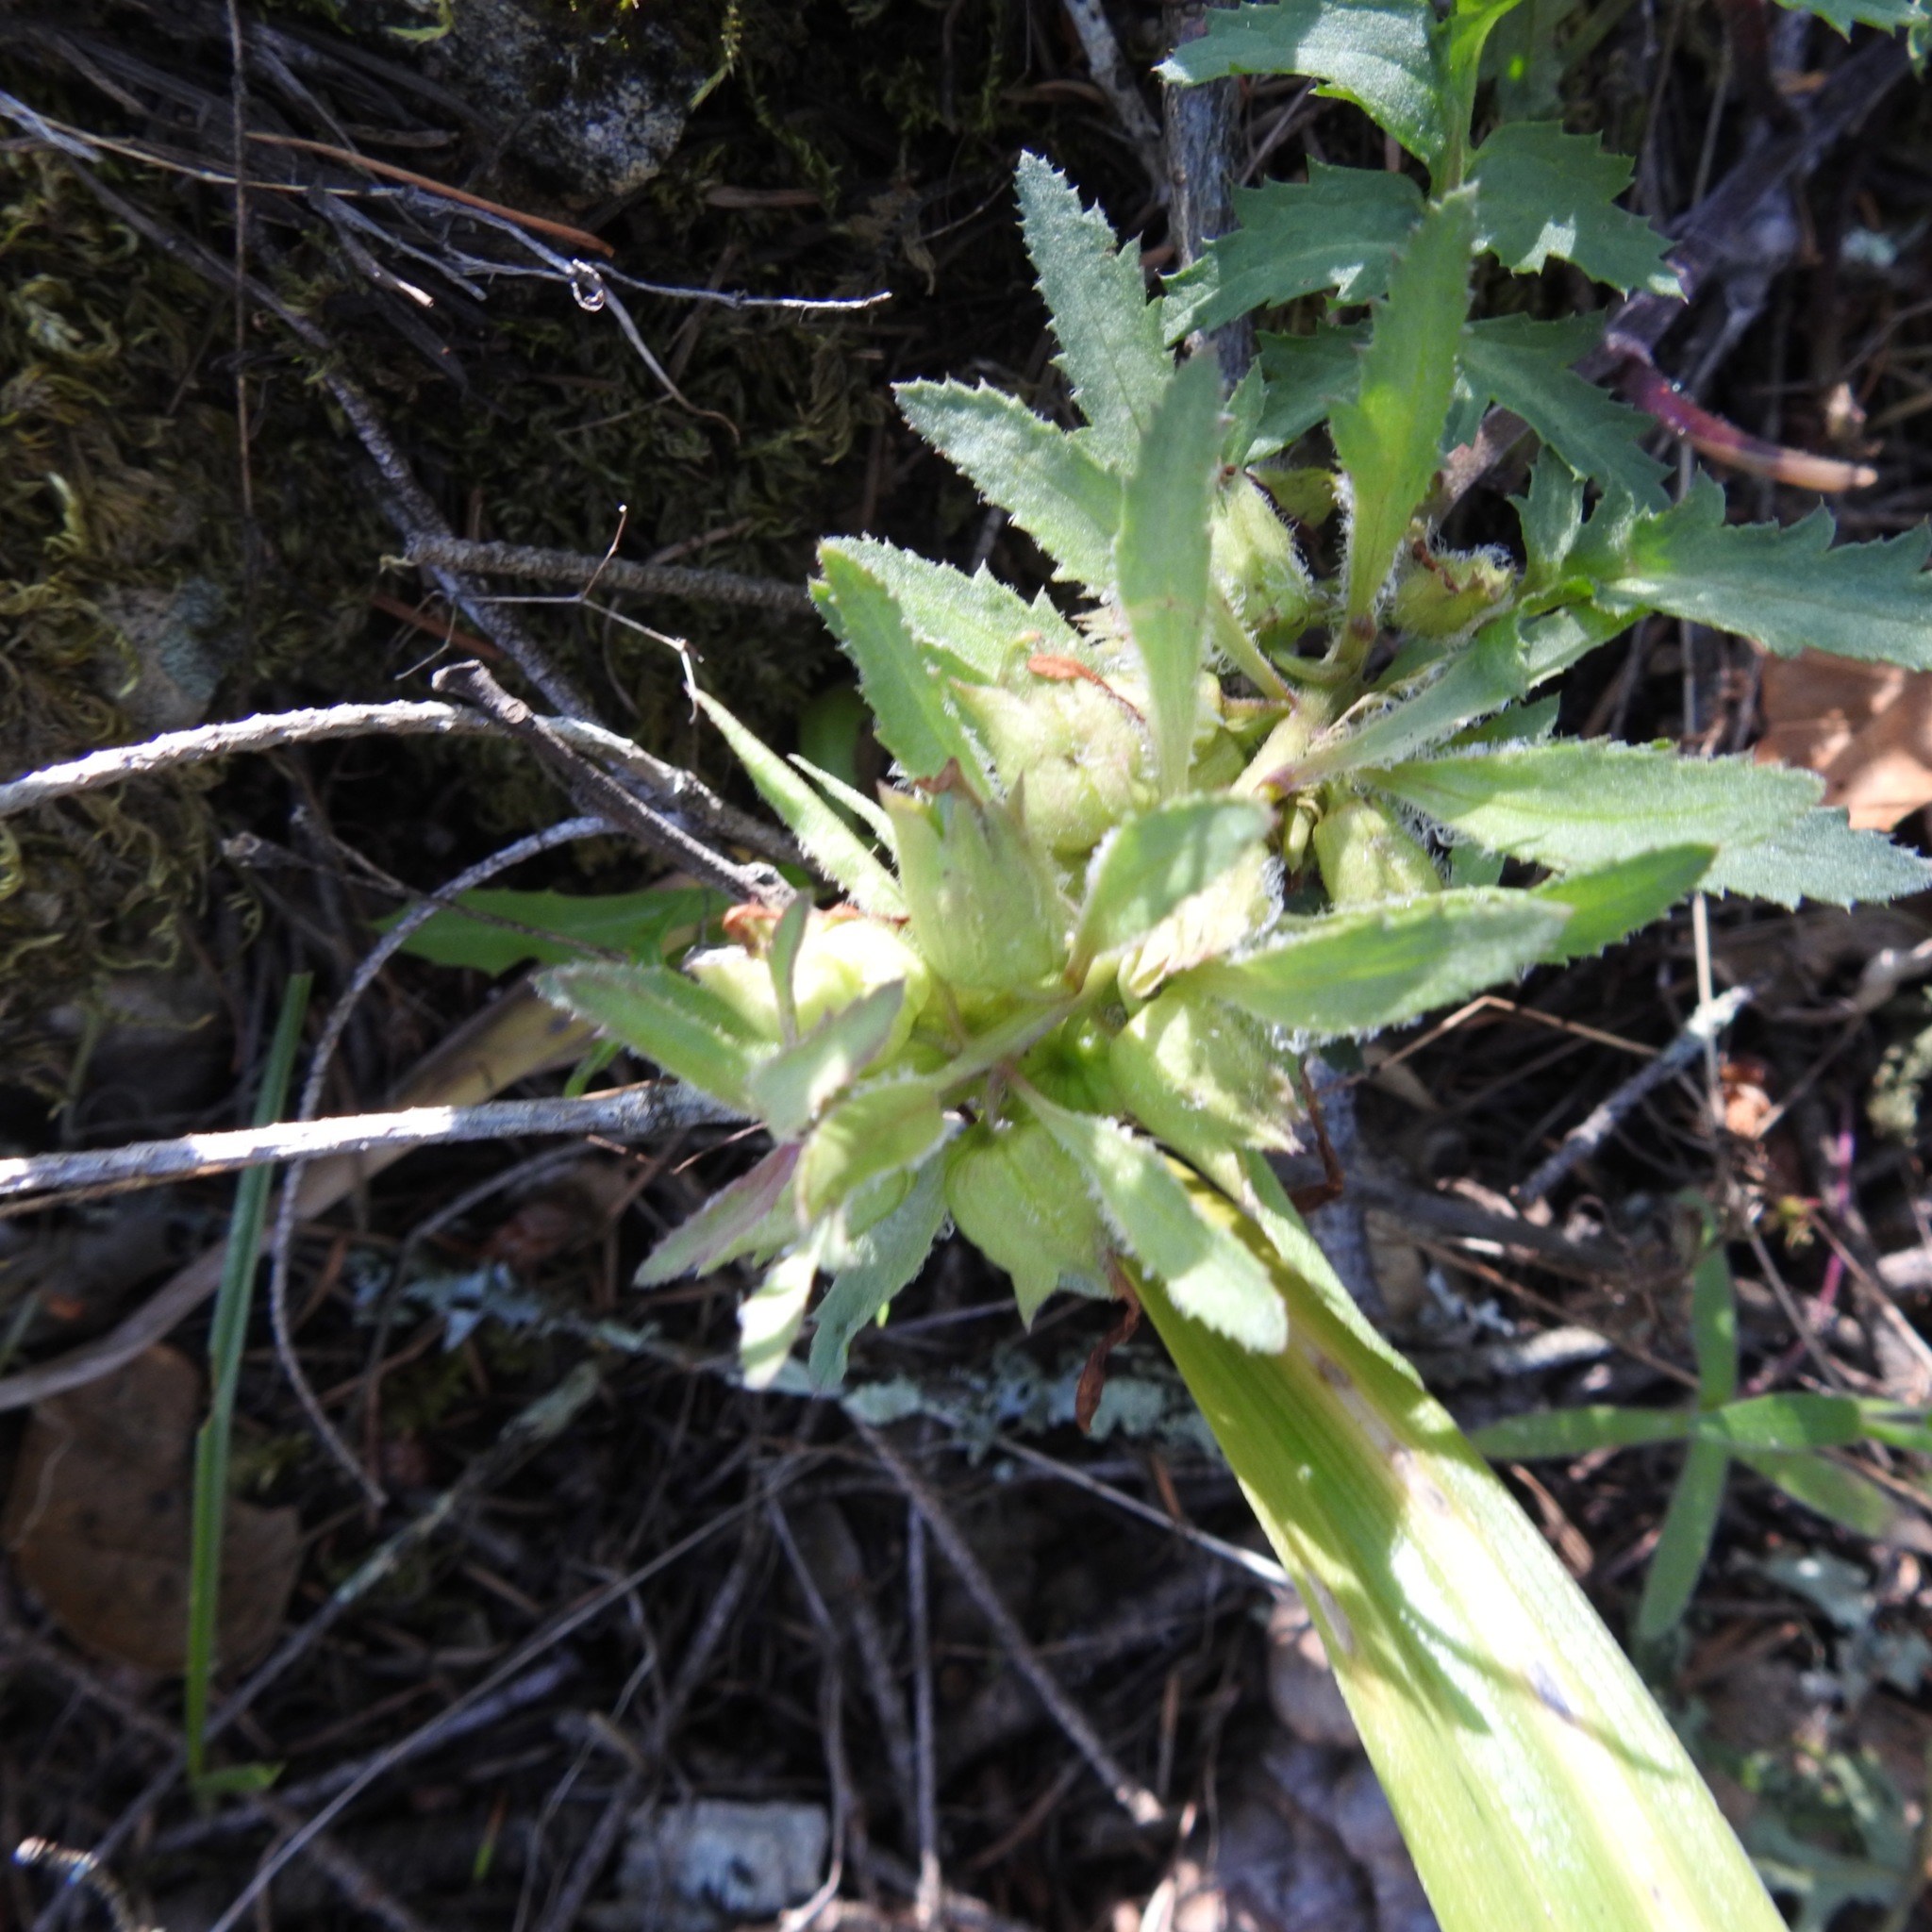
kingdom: Plantae
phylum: Tracheophyta
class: Magnoliopsida
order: Lamiales
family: Orobanchaceae
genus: Pedicularis
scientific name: Pedicularis densiflora
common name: Indian warrior
